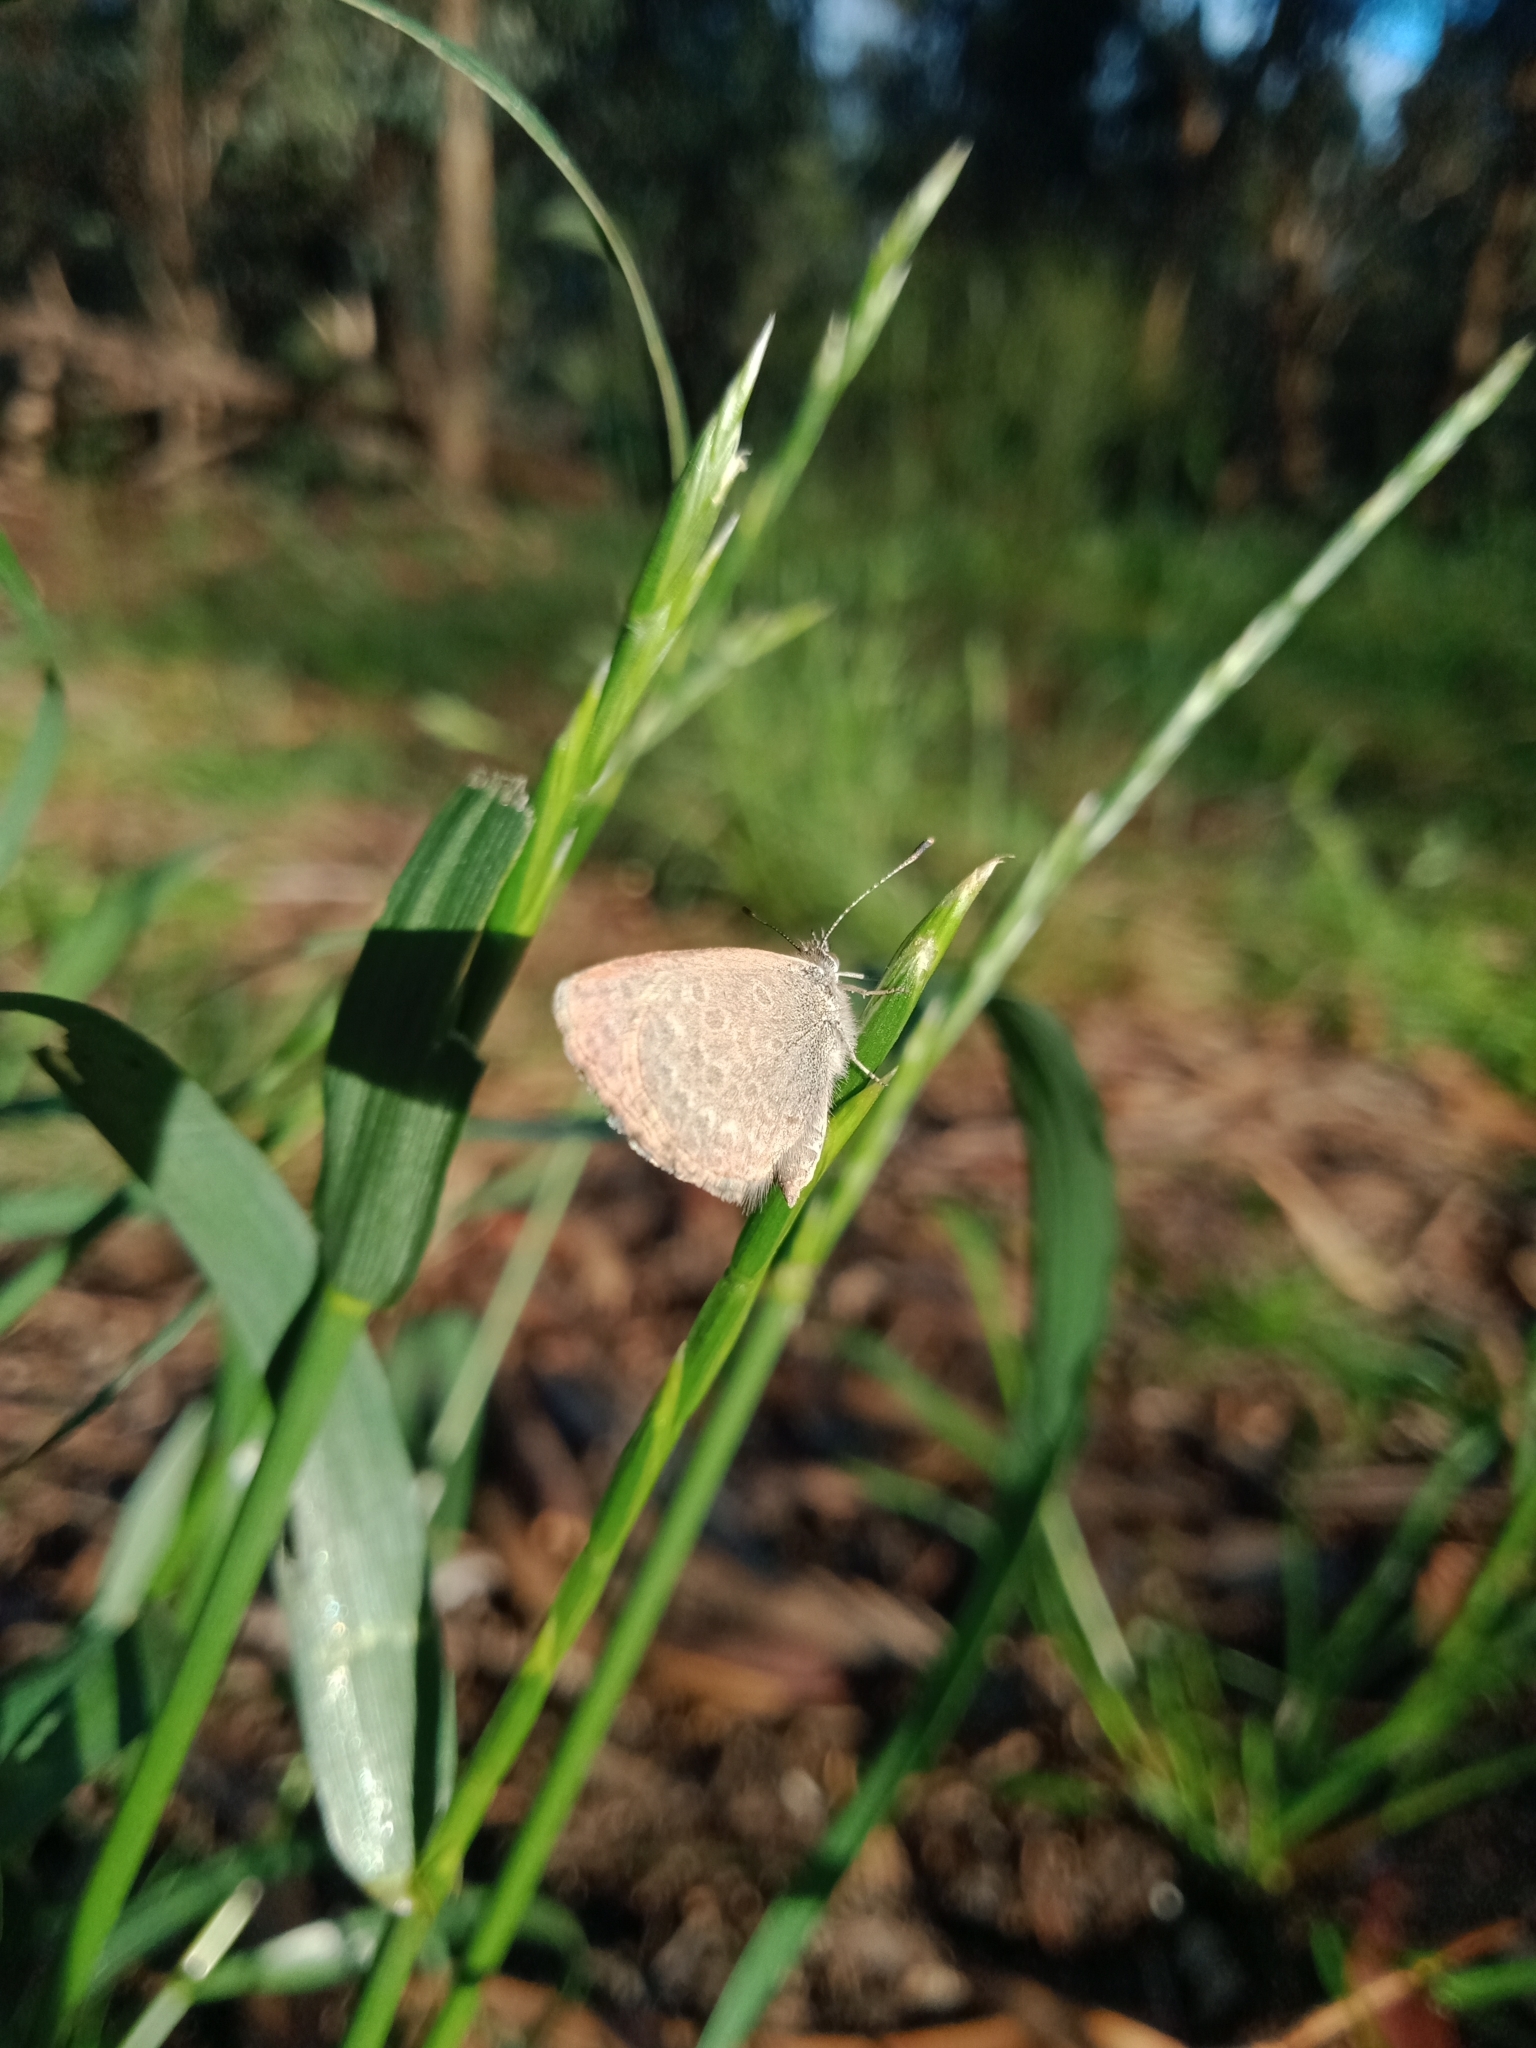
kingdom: Animalia
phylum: Arthropoda
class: Insecta
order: Lepidoptera
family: Lycaenidae
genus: Zizina
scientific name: Zizina labradus
